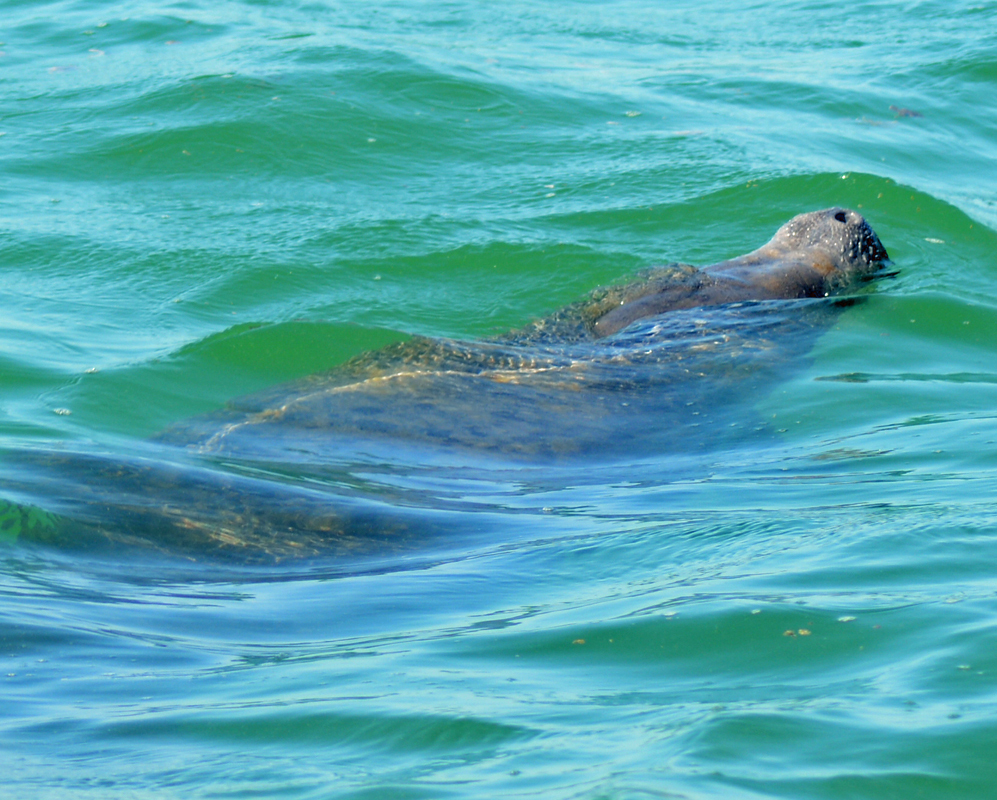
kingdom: Animalia
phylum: Chordata
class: Mammalia
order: Sirenia
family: Trichechidae
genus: Trichechus
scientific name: Trichechus manatus
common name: West indian manatee
